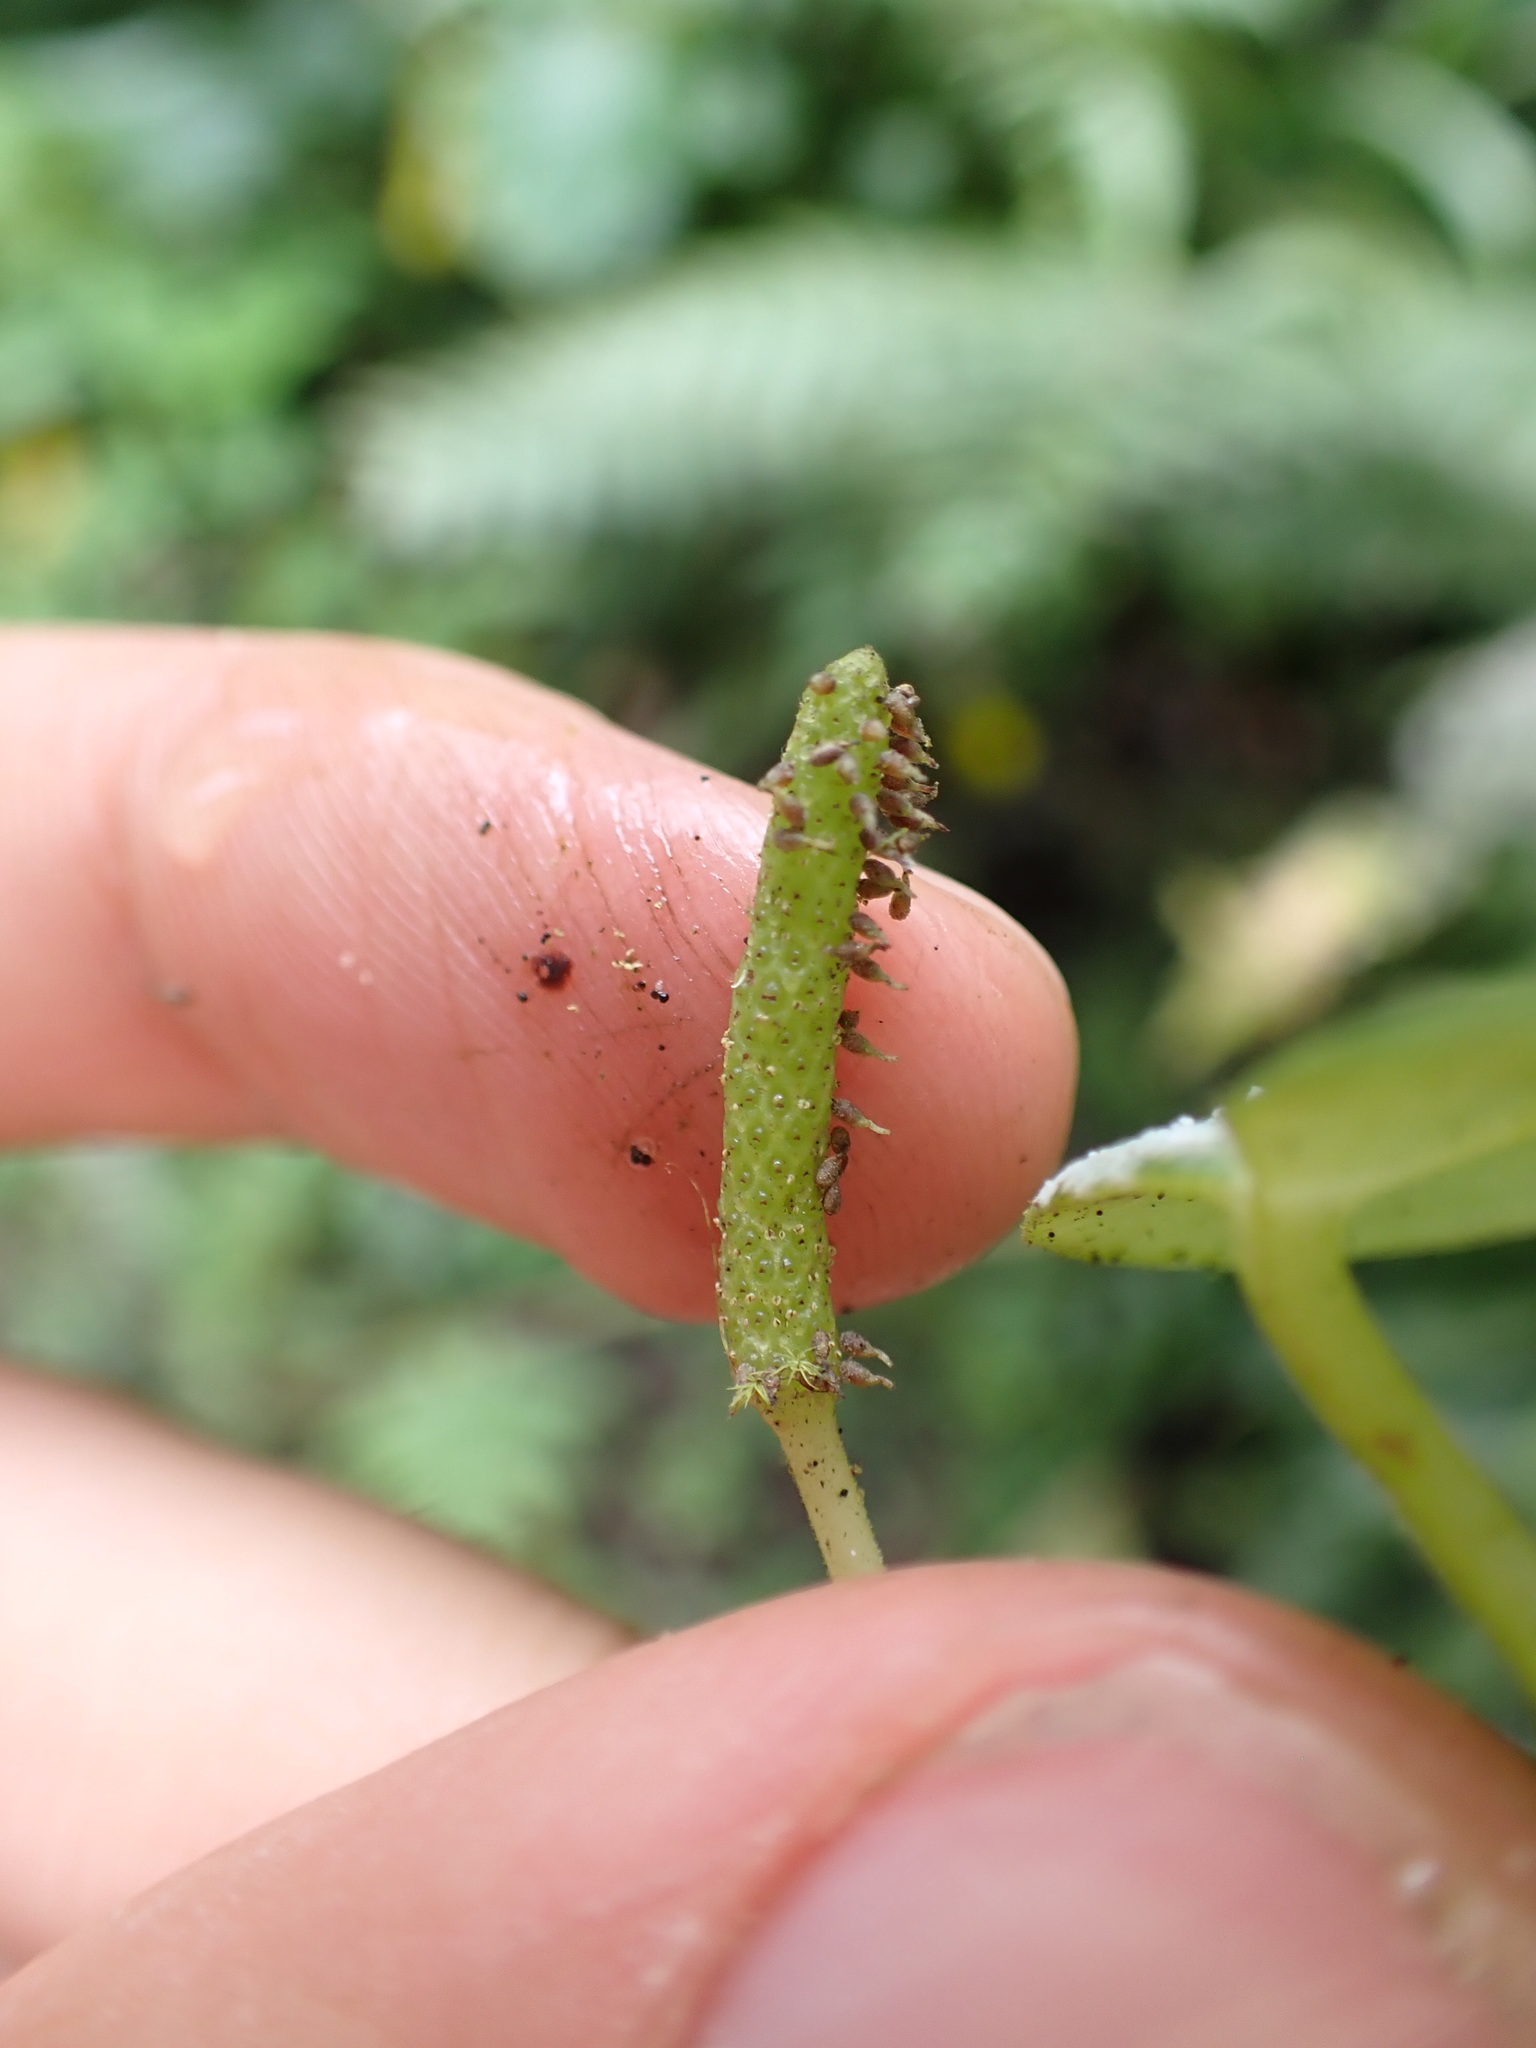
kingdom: Plantae
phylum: Tracheophyta
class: Magnoliopsida
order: Piperales
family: Piperaceae
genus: Peperomia
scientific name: Peperomia maransara
